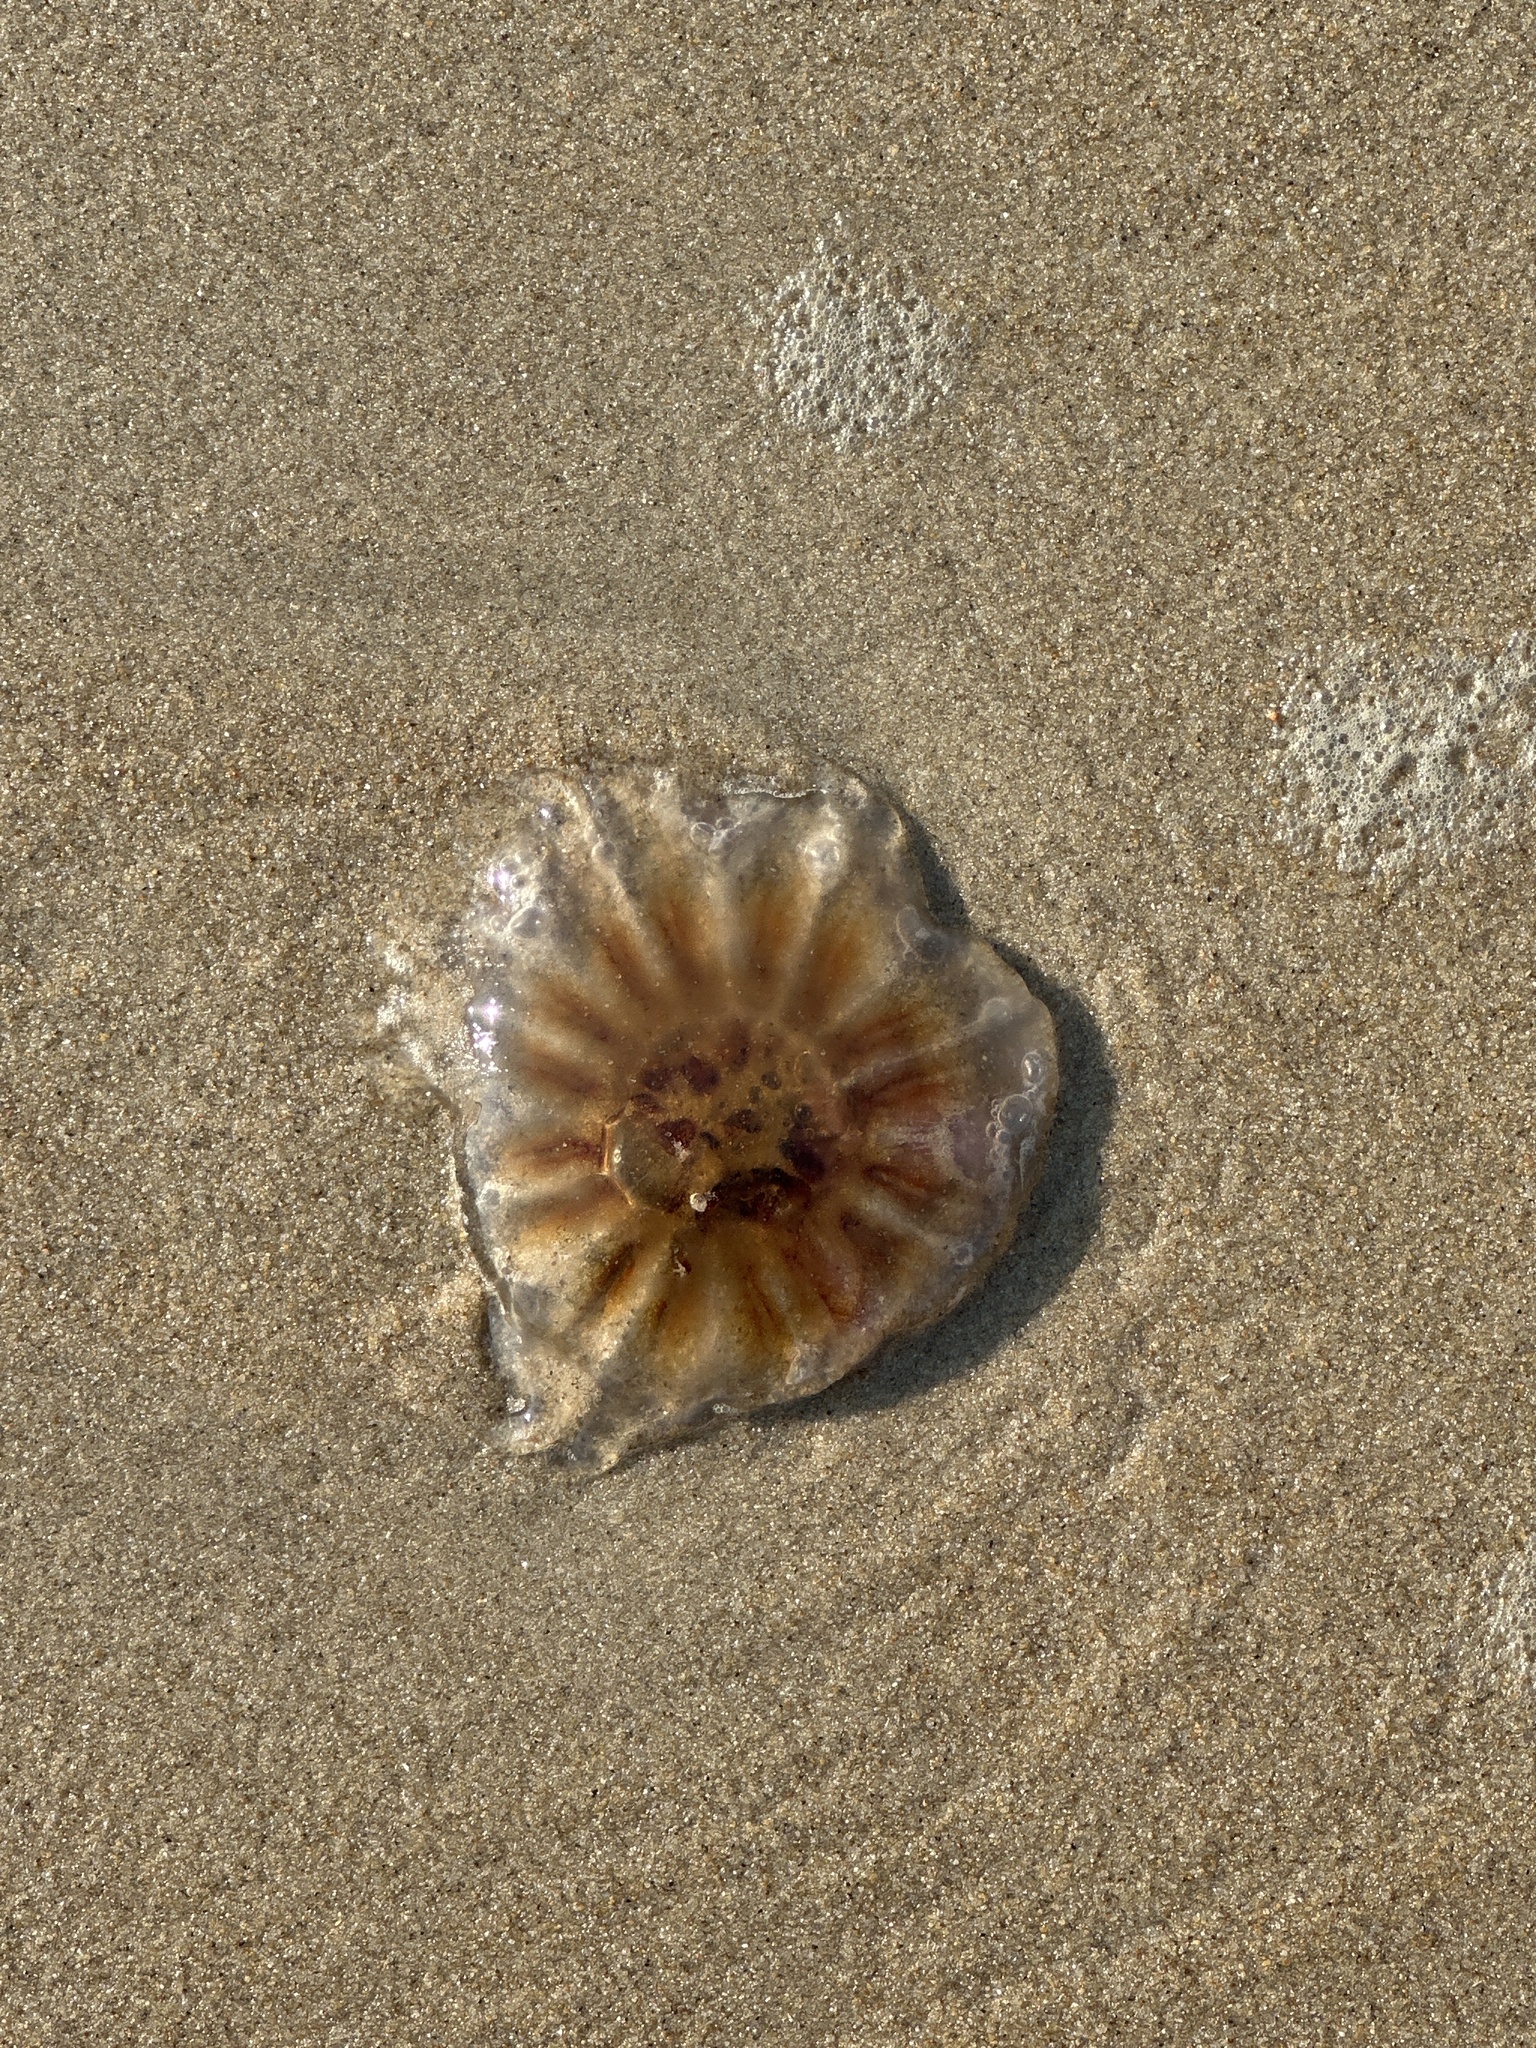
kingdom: Animalia
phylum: Cnidaria
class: Scyphozoa
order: Semaeostomeae
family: Cyaneidae
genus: Cyanea
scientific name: Cyanea versicolor
